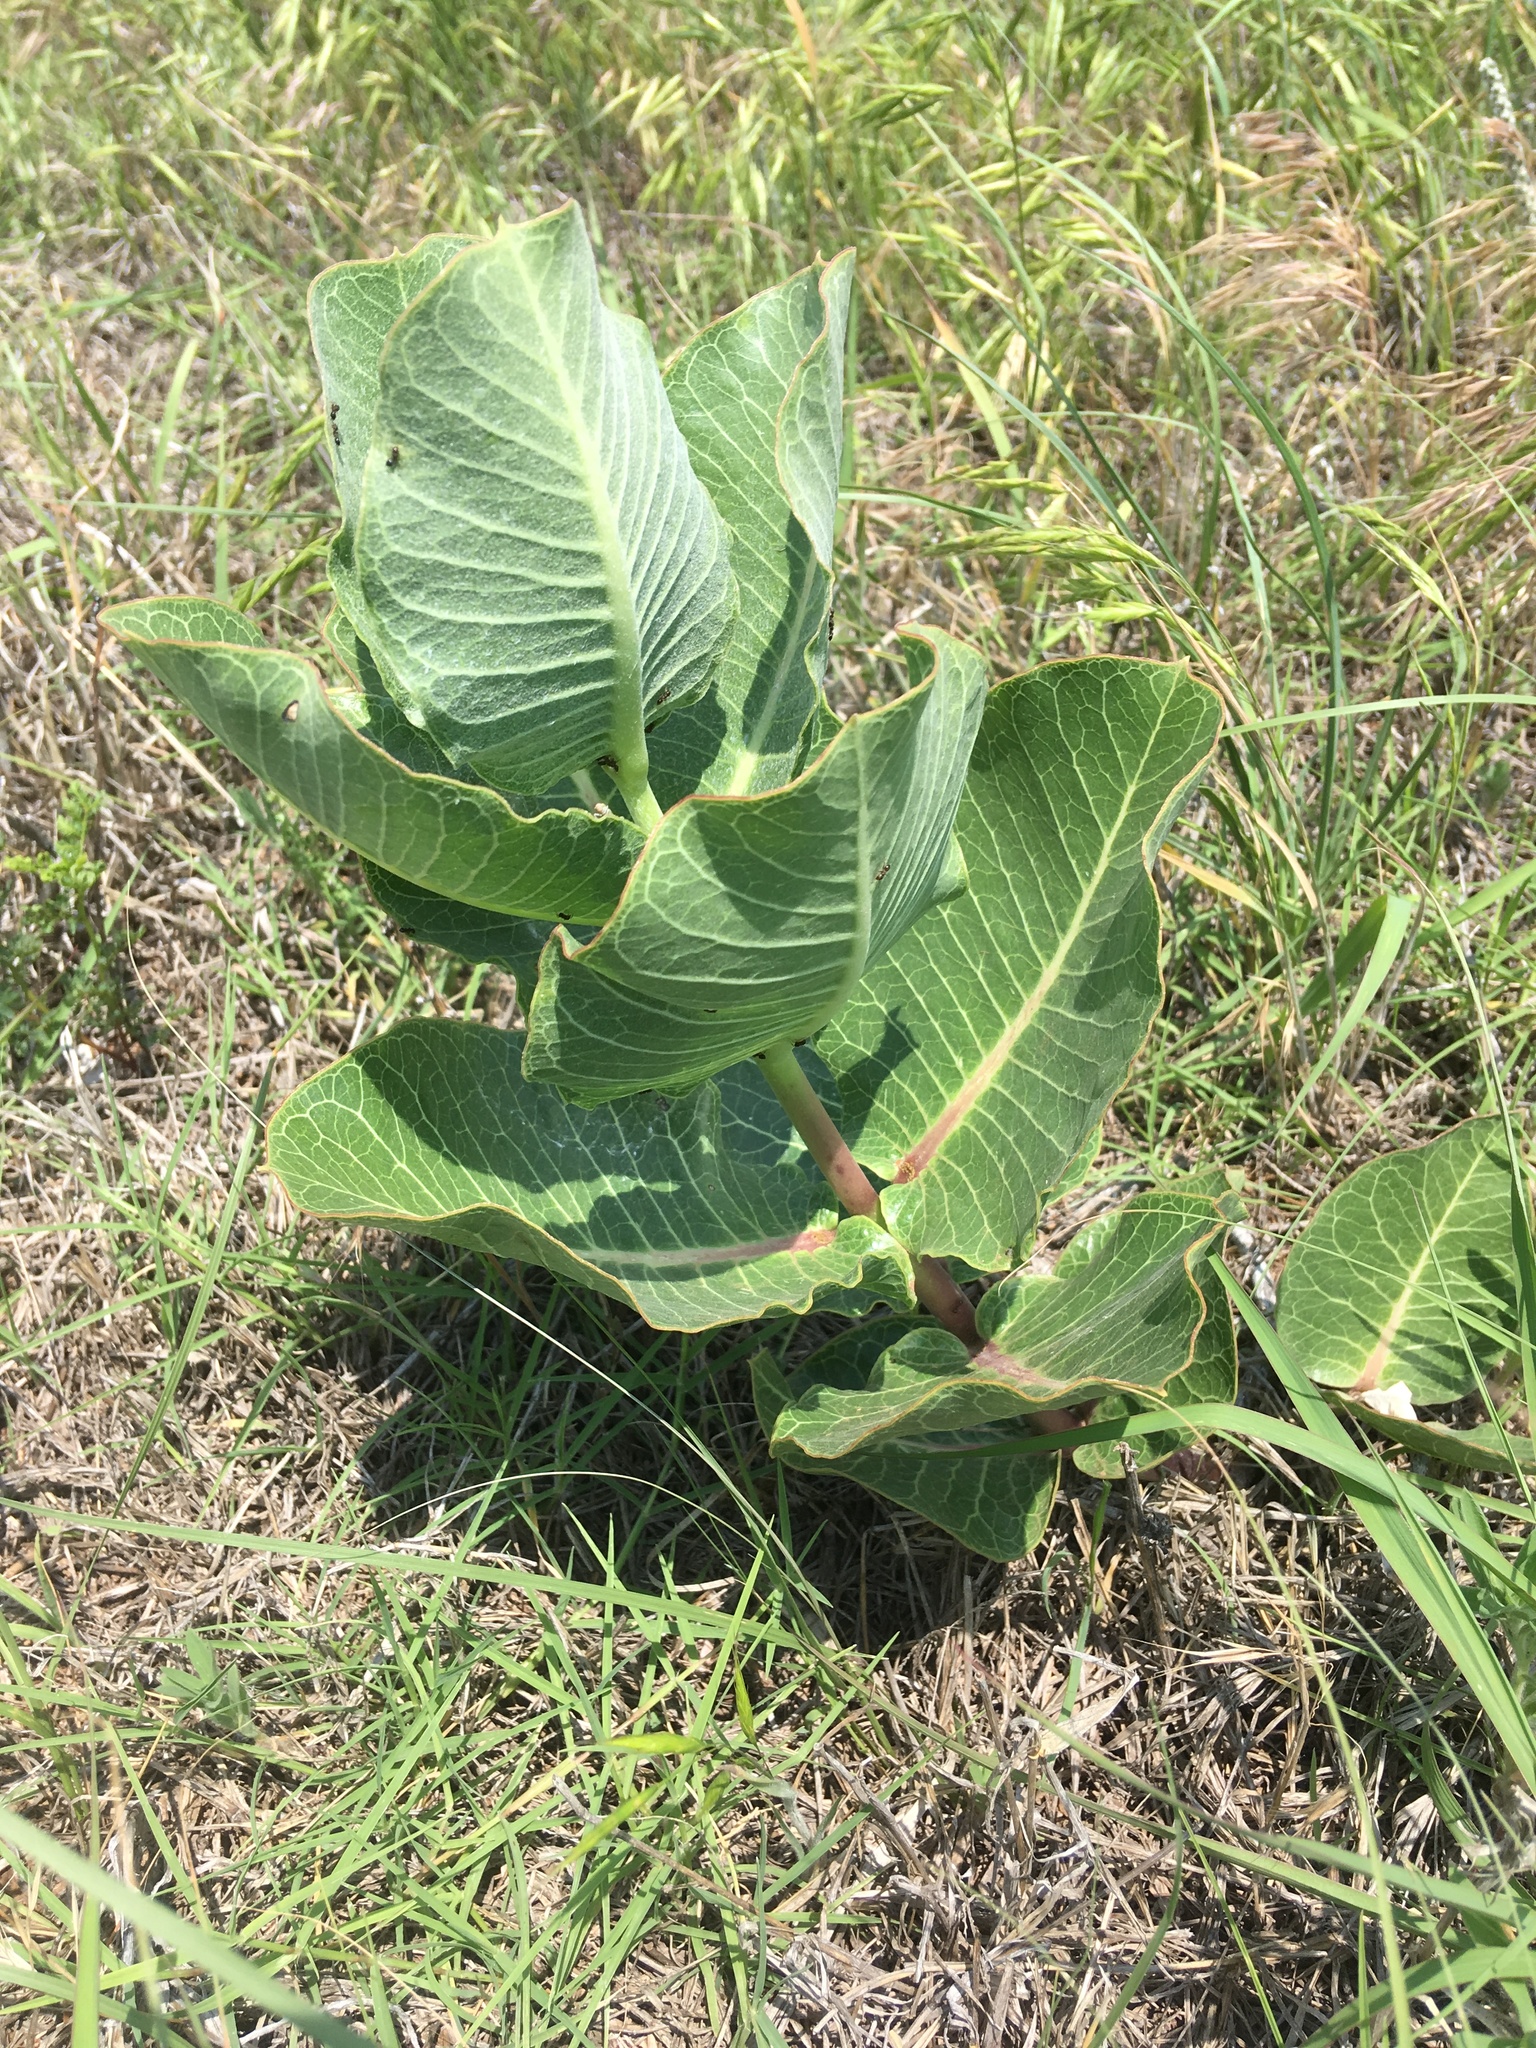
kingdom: Plantae
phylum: Tracheophyta
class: Magnoliopsida
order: Gentianales
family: Apocynaceae
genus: Asclepias
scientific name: Asclepias latifolia
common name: Broadleaf milkweed
